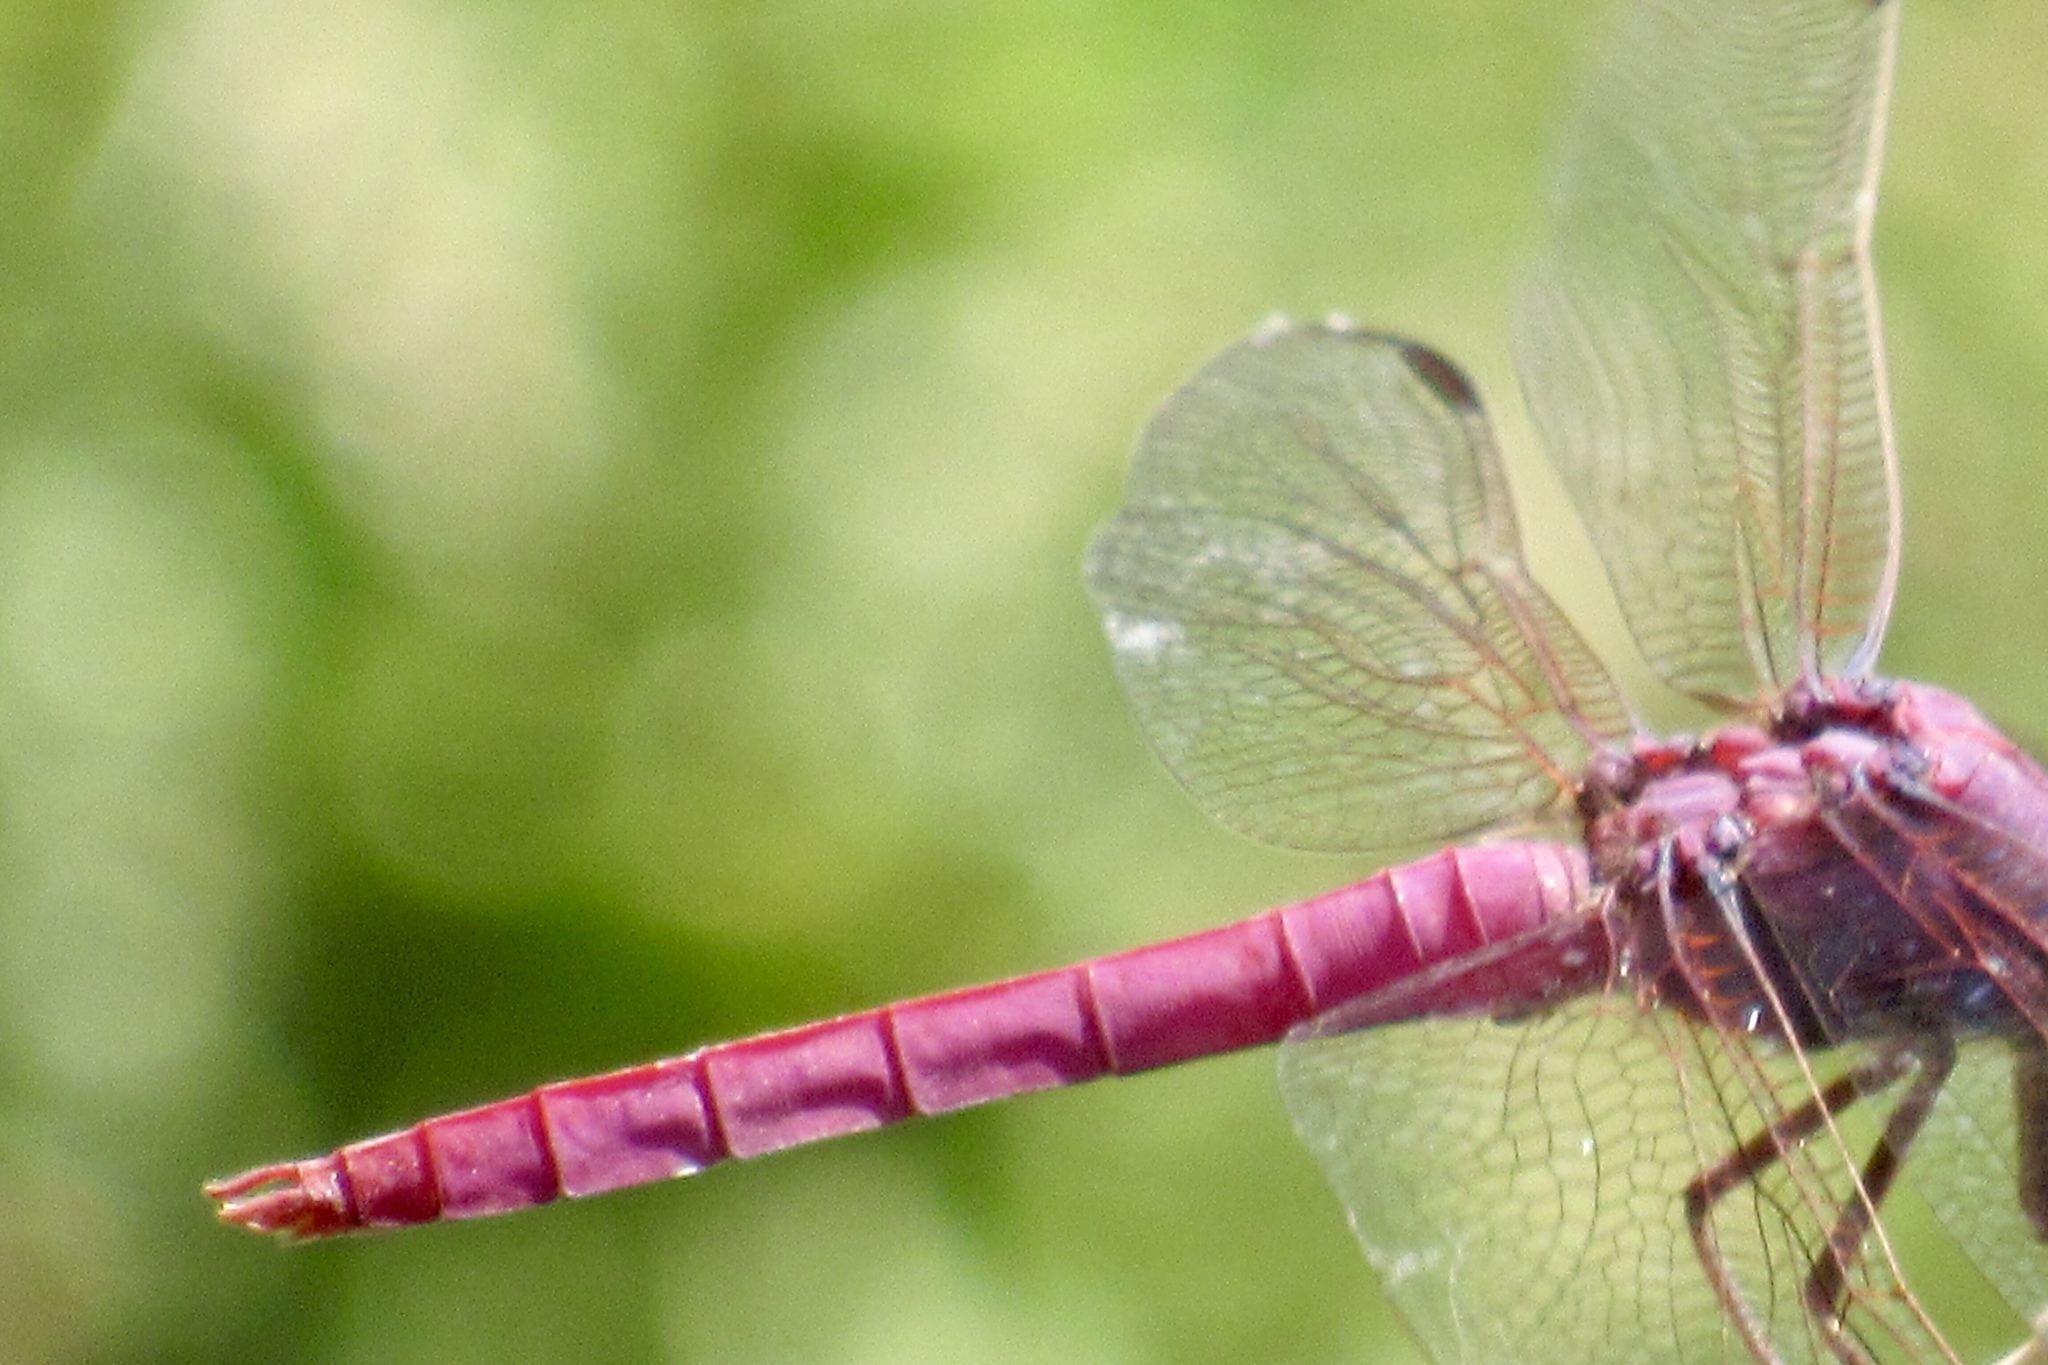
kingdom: Animalia
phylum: Arthropoda
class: Insecta
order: Odonata
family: Libellulidae
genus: Orthemis
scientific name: Orthemis ferruginea
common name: Roseate skimmer
